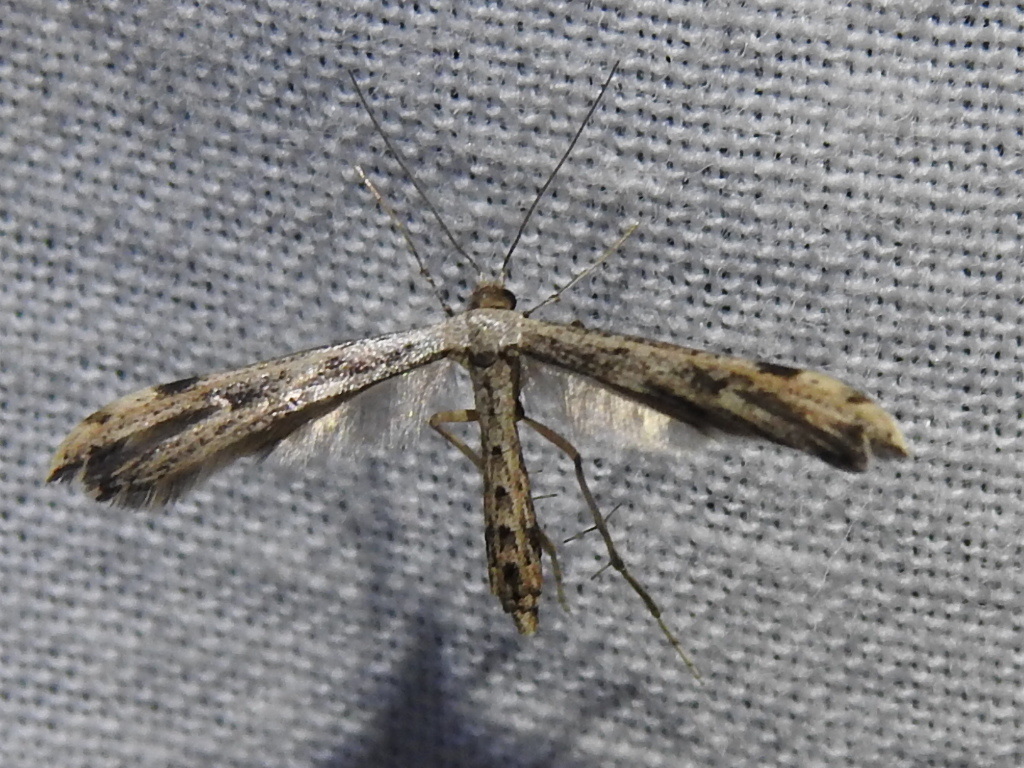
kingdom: Animalia
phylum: Arthropoda
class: Insecta
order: Lepidoptera
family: Pterophoridae
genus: Adaina
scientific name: Adaina ambrosiae
